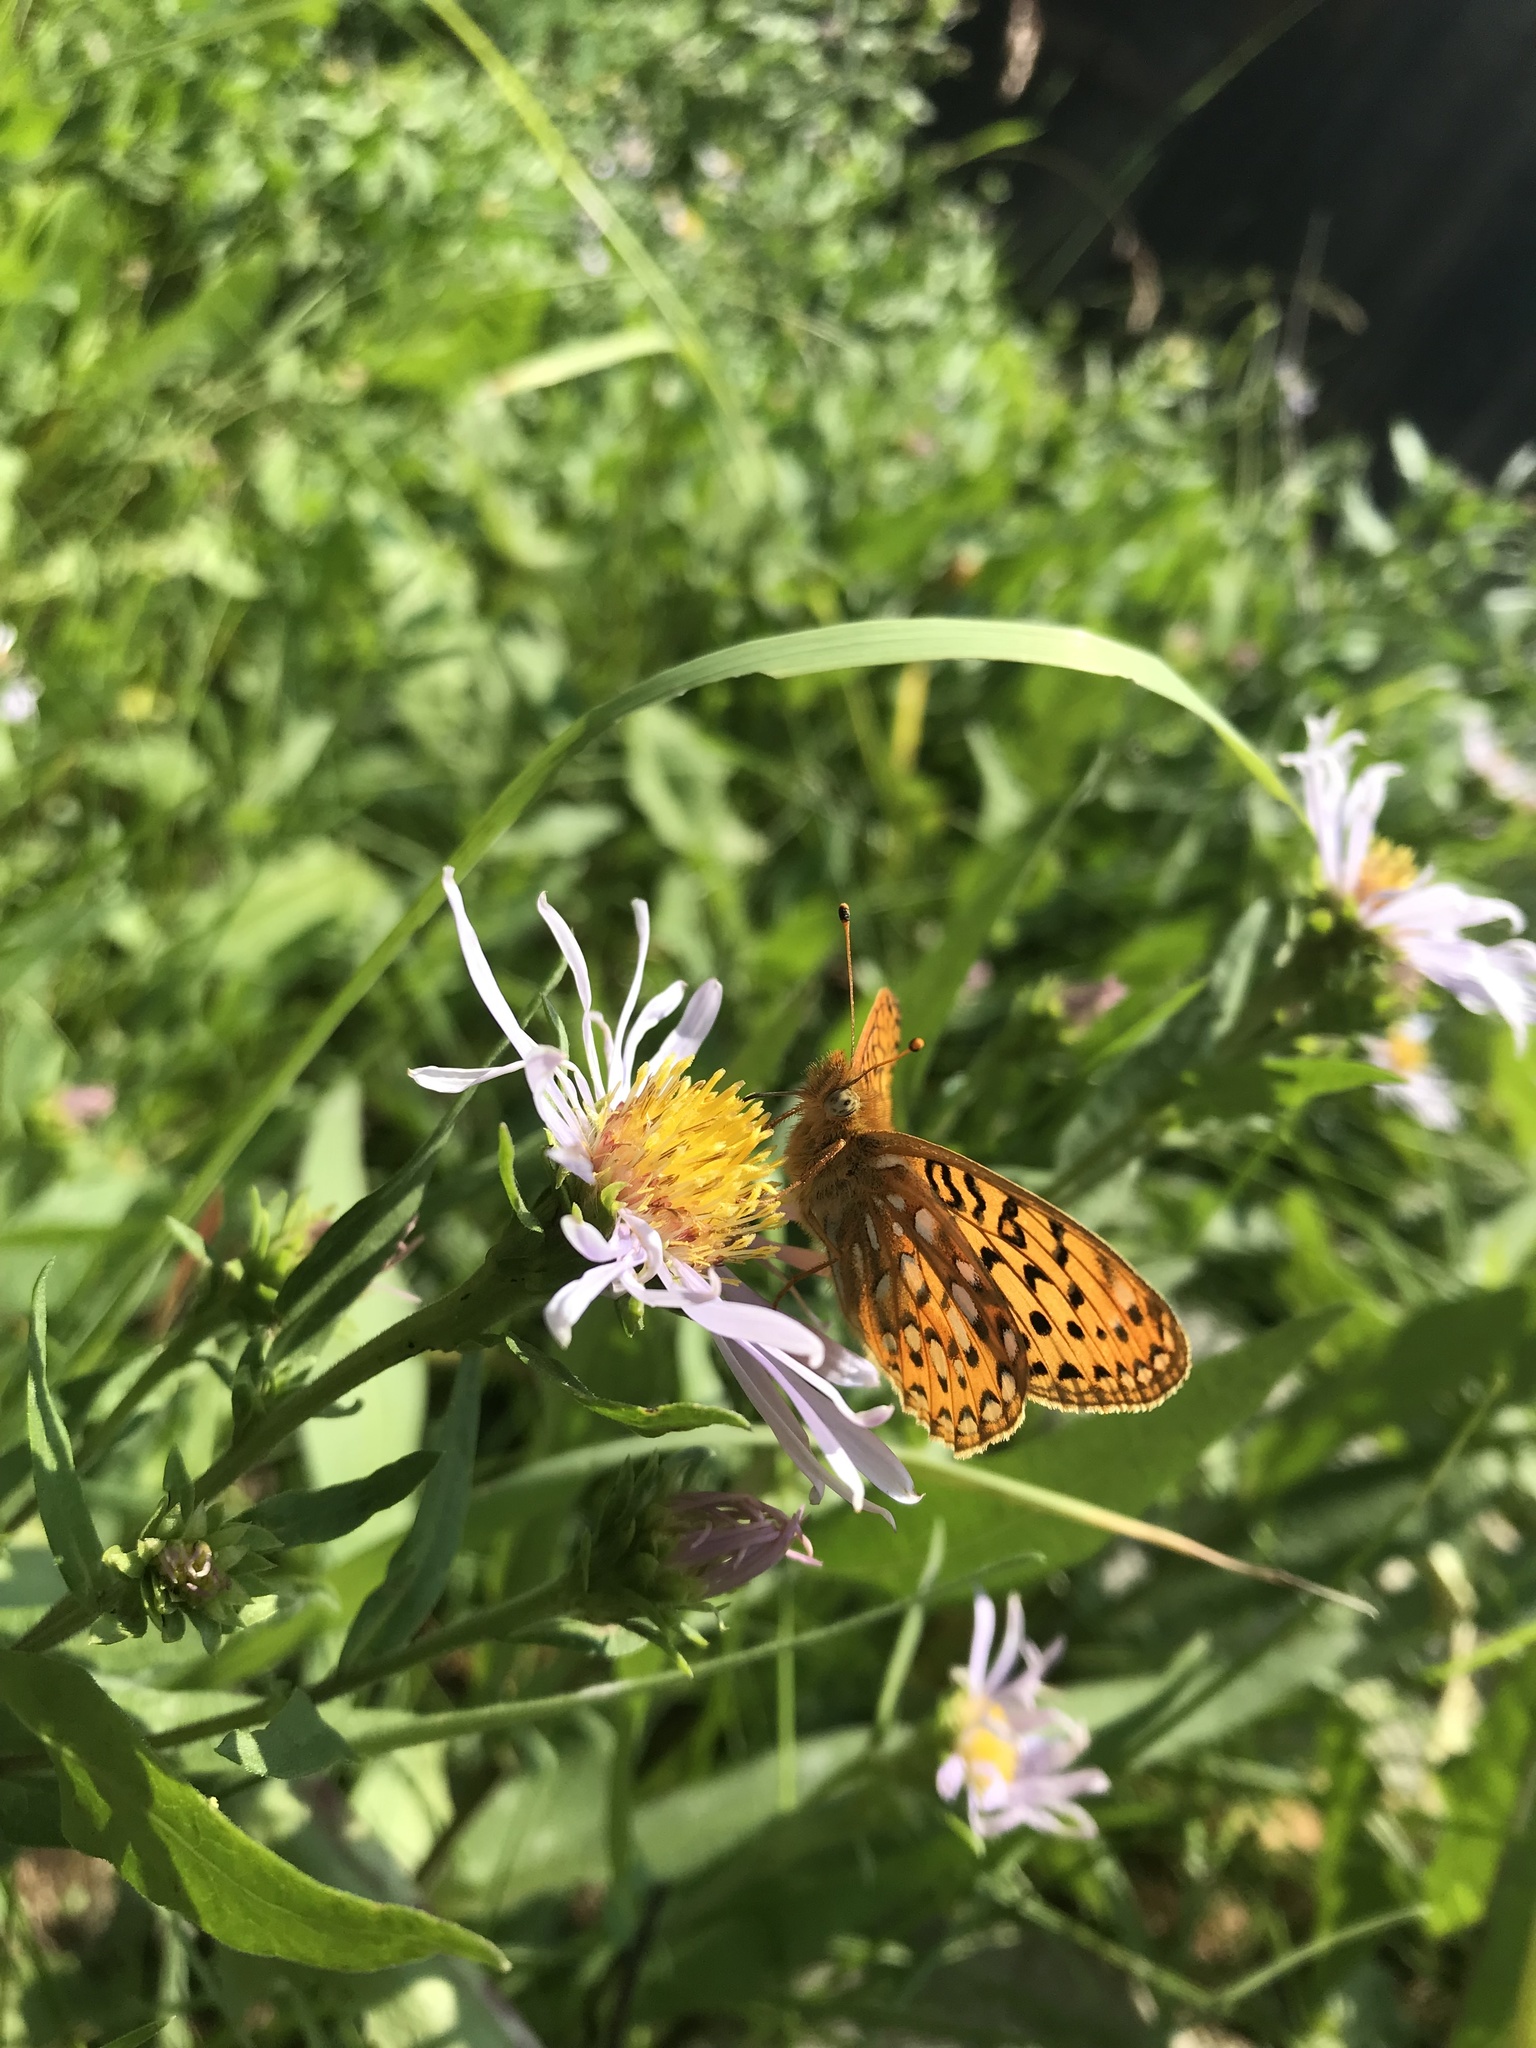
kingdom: Animalia
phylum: Arthropoda
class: Insecta
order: Lepidoptera
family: Nymphalidae
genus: Speyeria
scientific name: Speyeria mormonia
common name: Mormon fritillary
